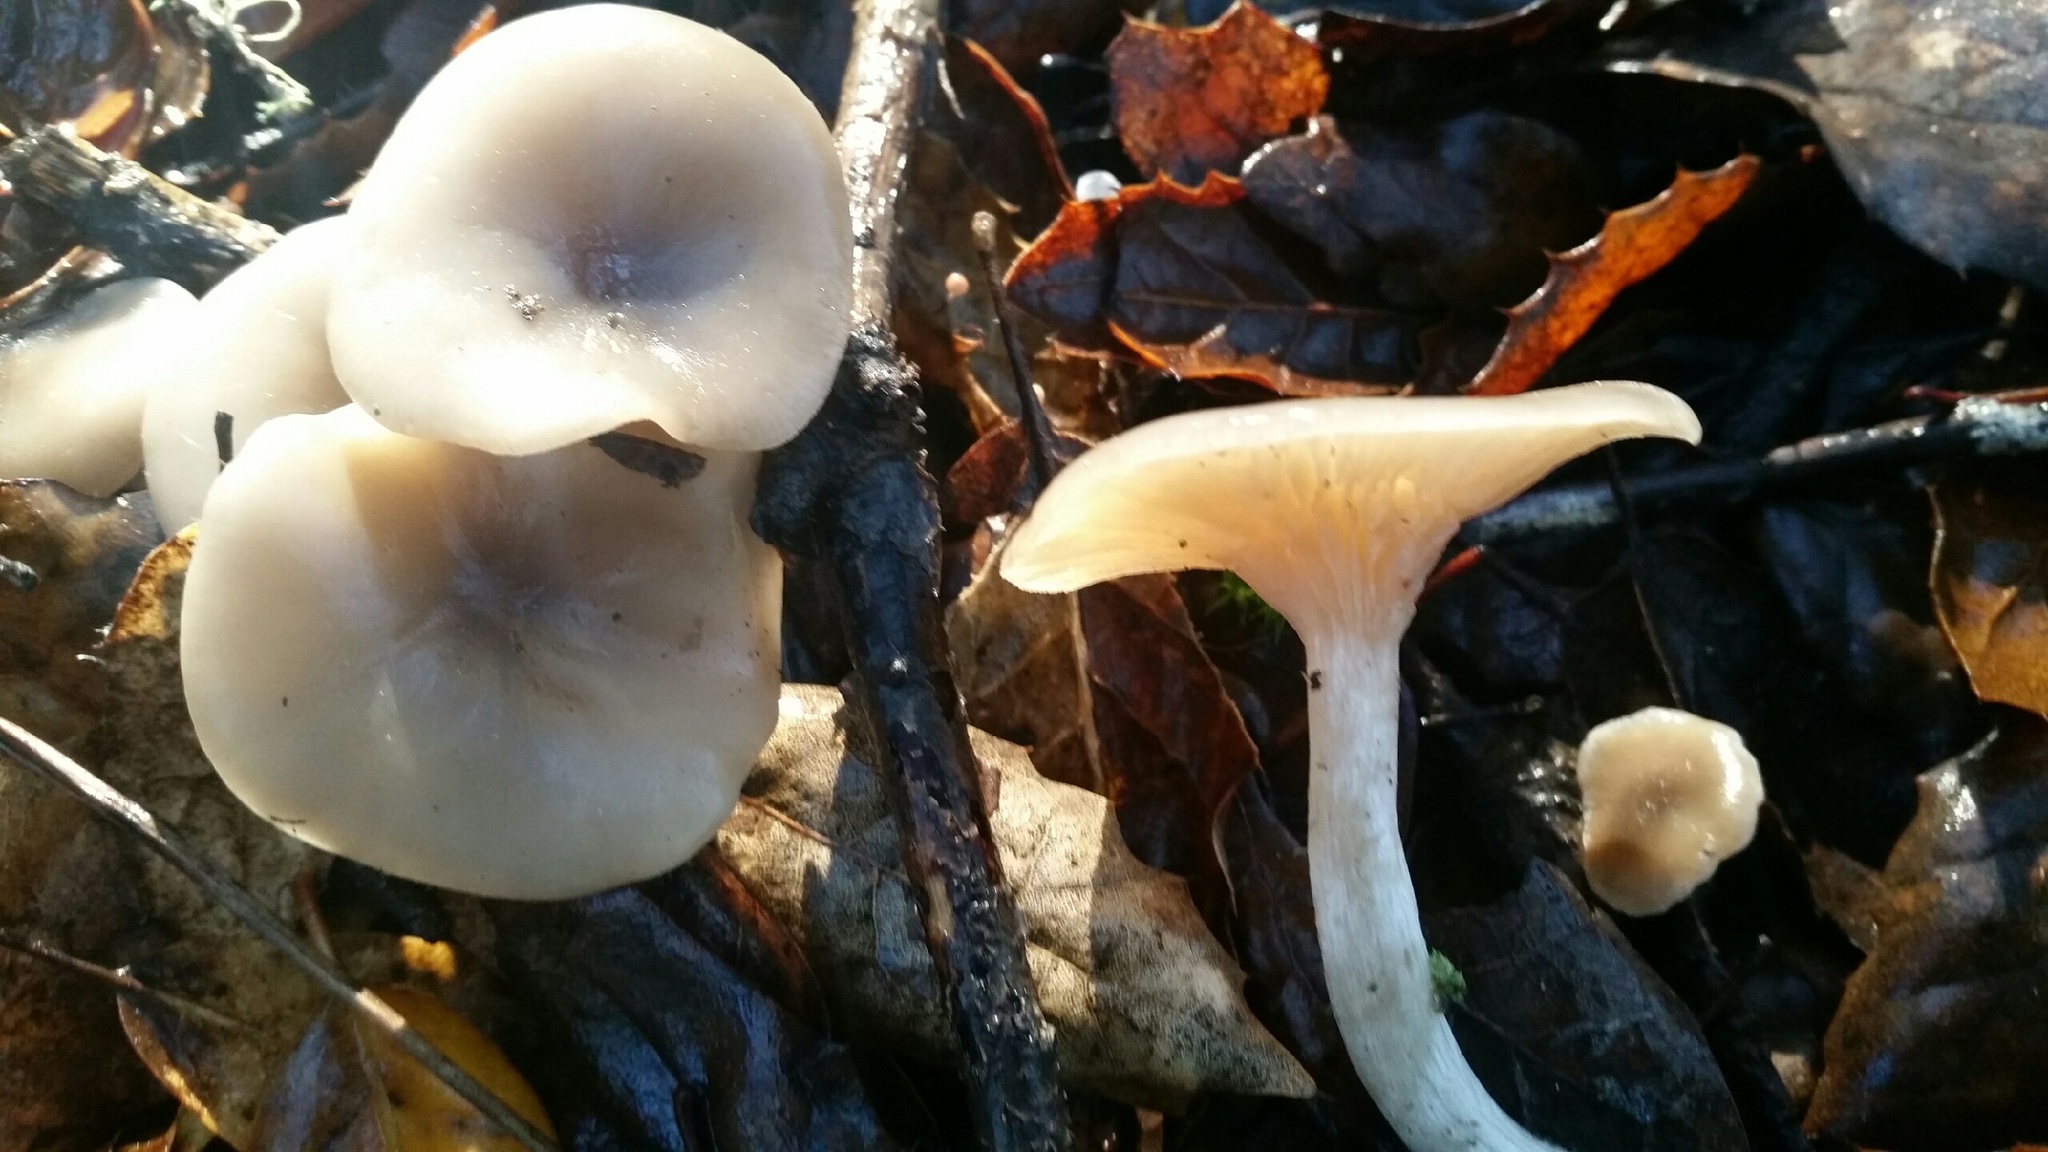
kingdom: Fungi
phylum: Basidiomycota
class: Agaricomycetes
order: Agaricales
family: Tricholomataceae
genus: Clitocybe
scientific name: Clitocybe fragrans
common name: Fragrant funnel
